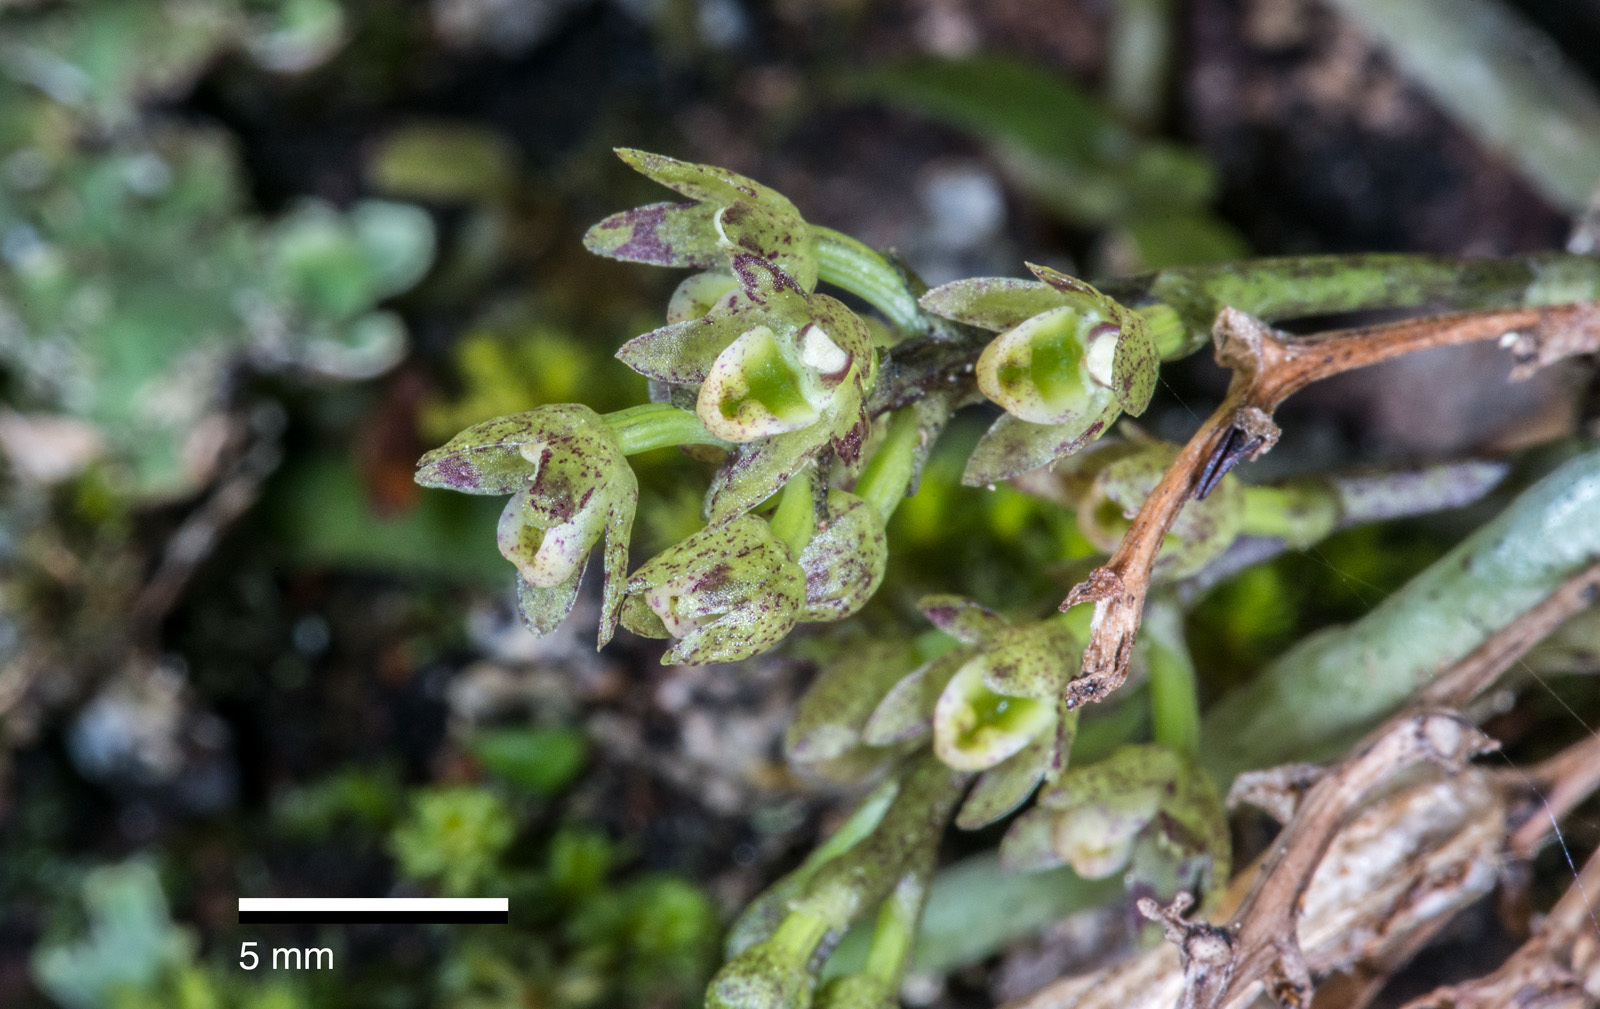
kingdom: Plantae
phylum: Tracheophyta
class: Liliopsida
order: Asparagales
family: Orchidaceae
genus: Drymoanthus
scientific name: Drymoanthus adversus
